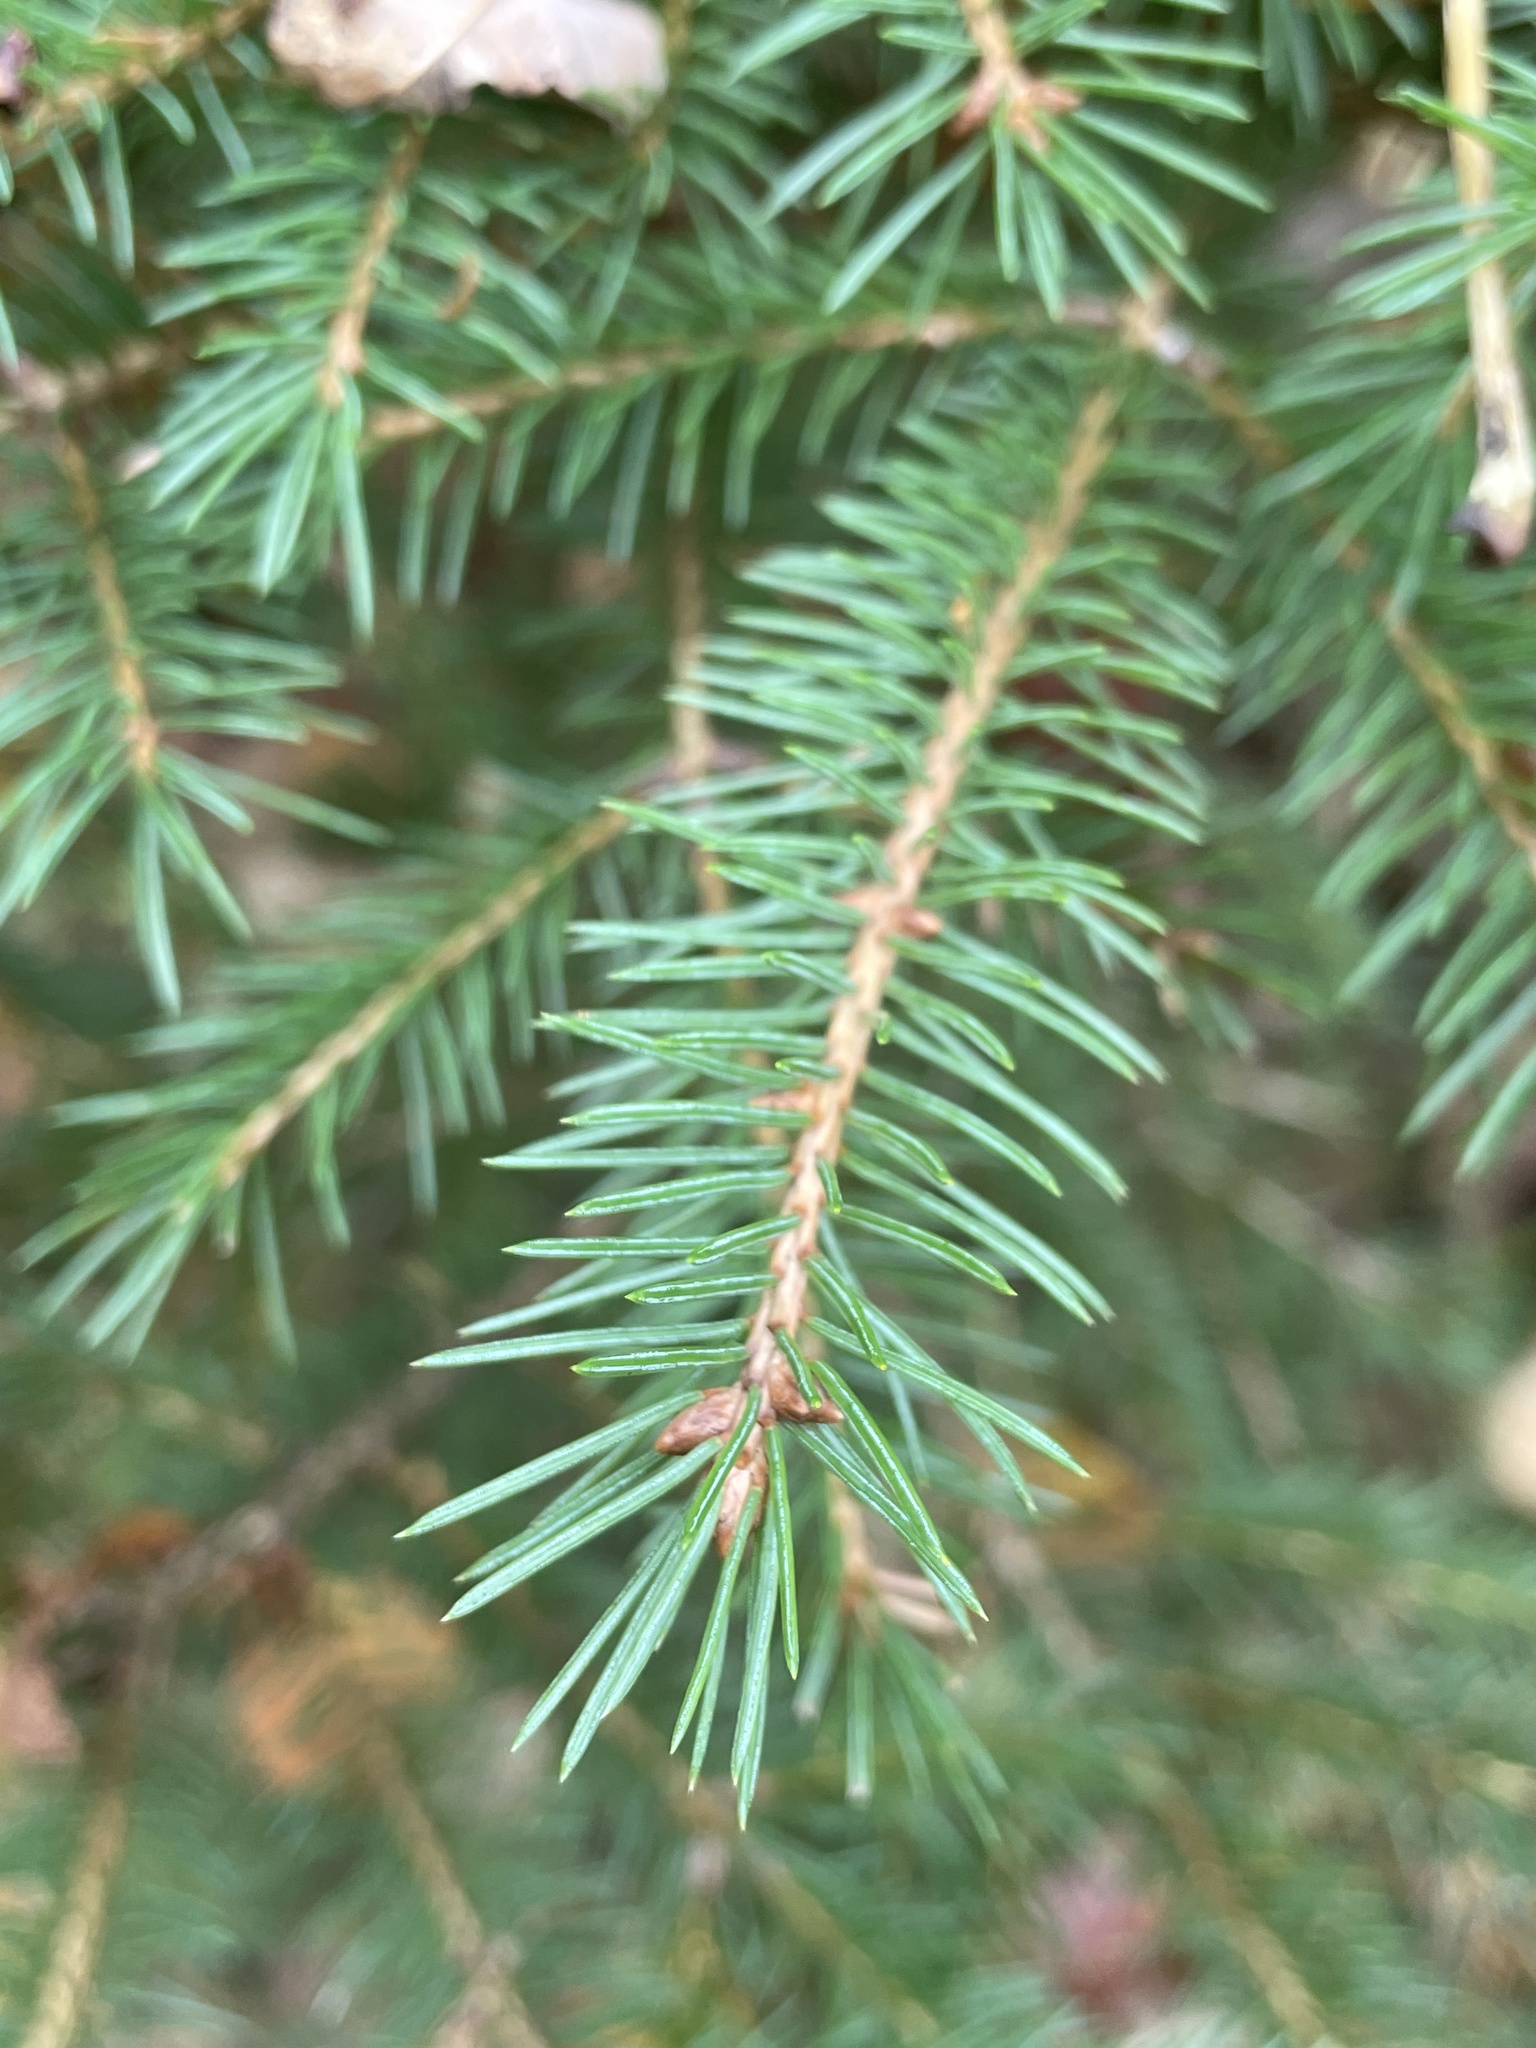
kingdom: Plantae
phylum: Tracheophyta
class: Pinopsida
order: Pinales
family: Pinaceae
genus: Picea
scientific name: Picea glauca
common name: White spruce
